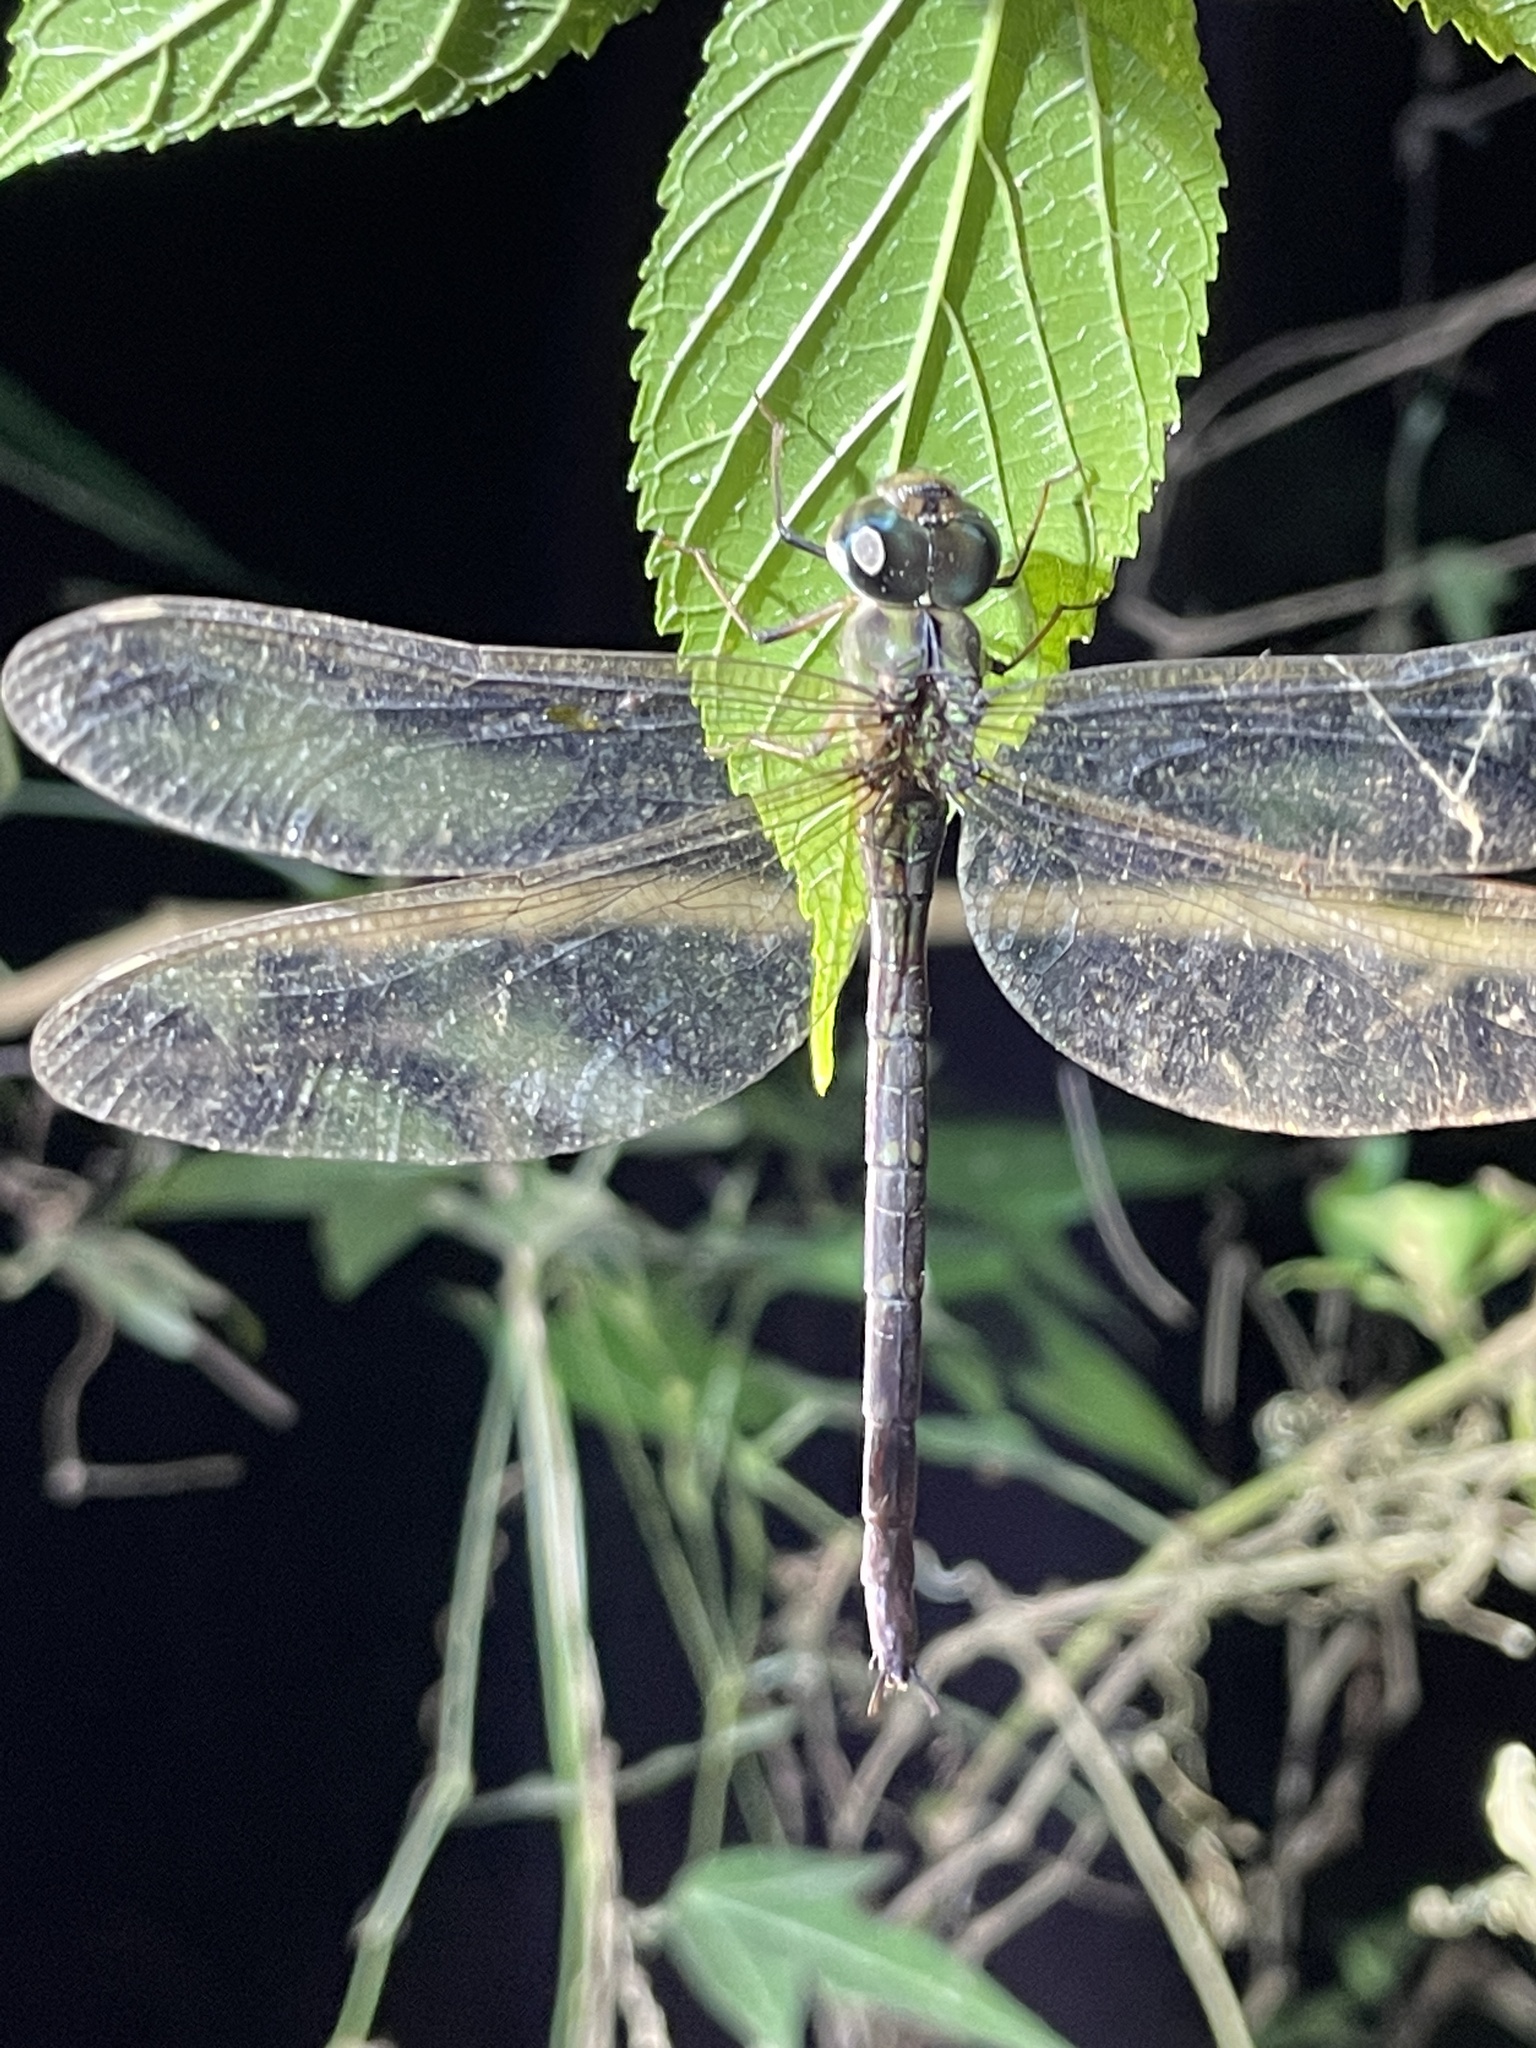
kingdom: Animalia
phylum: Arthropoda
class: Insecta
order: Odonata
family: Aeshnidae
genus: Gynacantha
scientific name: Gynacantha subinterrupta
